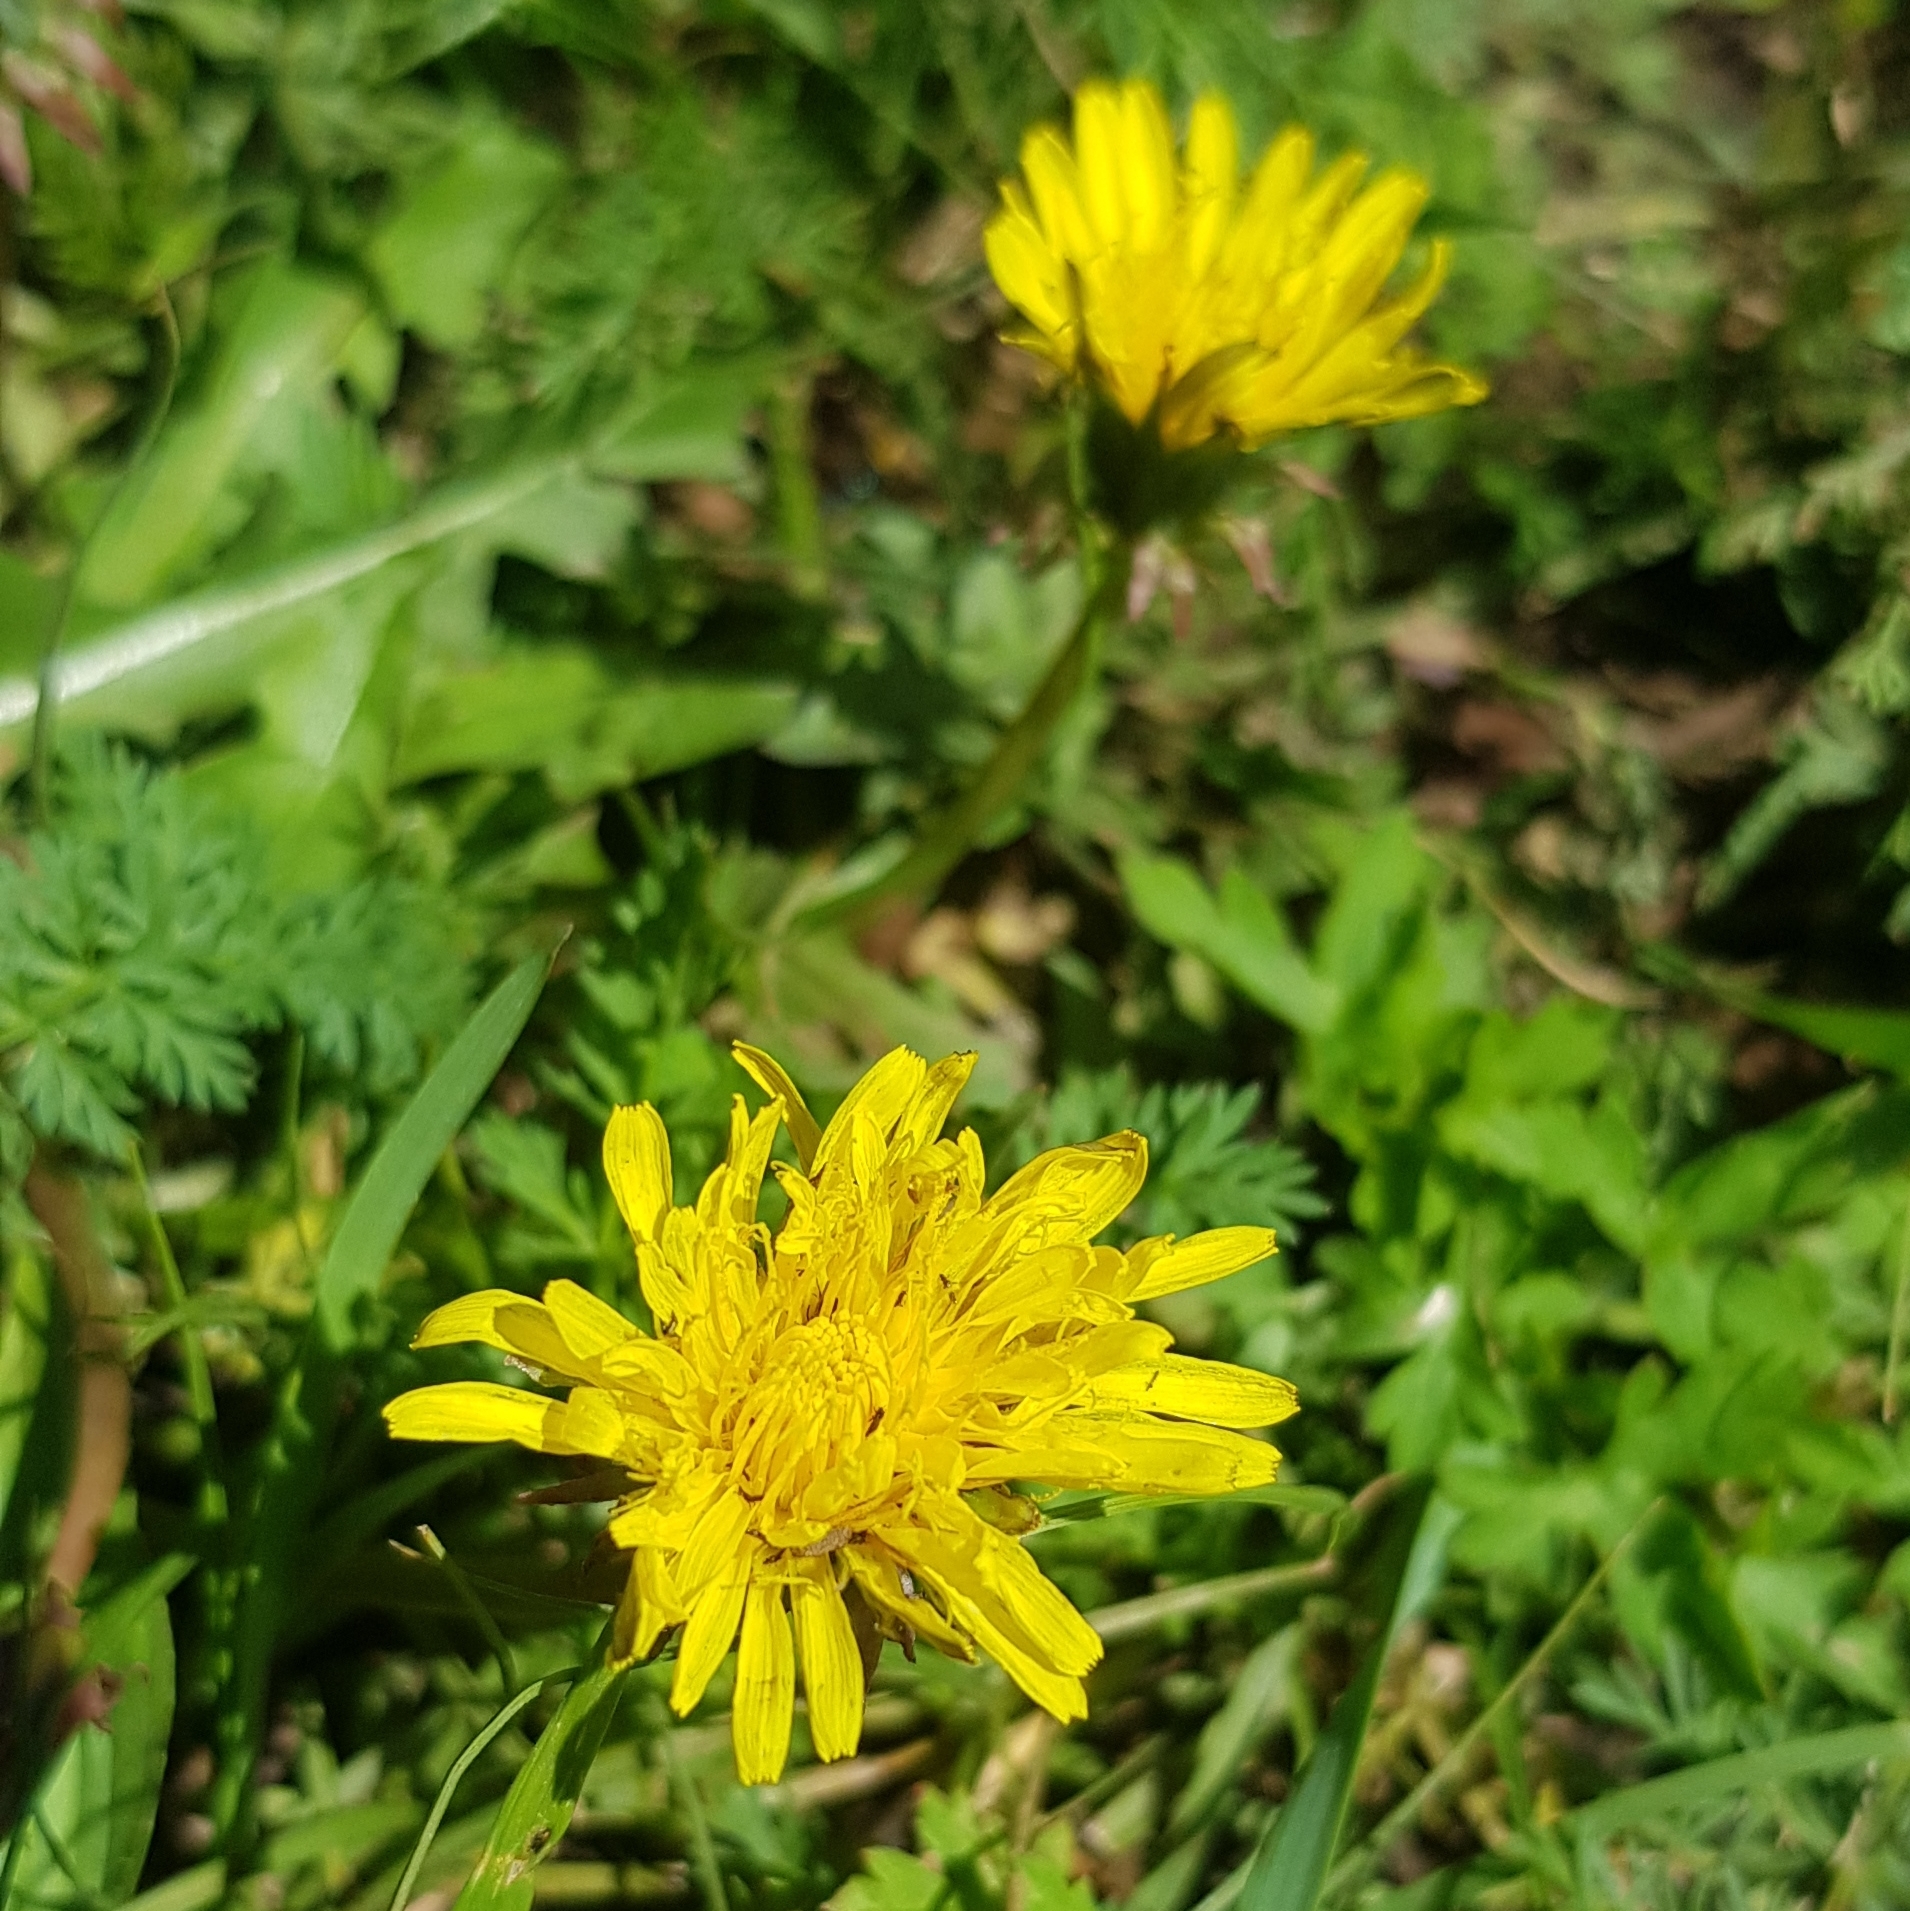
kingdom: Plantae
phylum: Tracheophyta
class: Magnoliopsida
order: Asterales
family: Asteraceae
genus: Taraxacum
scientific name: Taraxacum officinale
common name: Common dandelion
